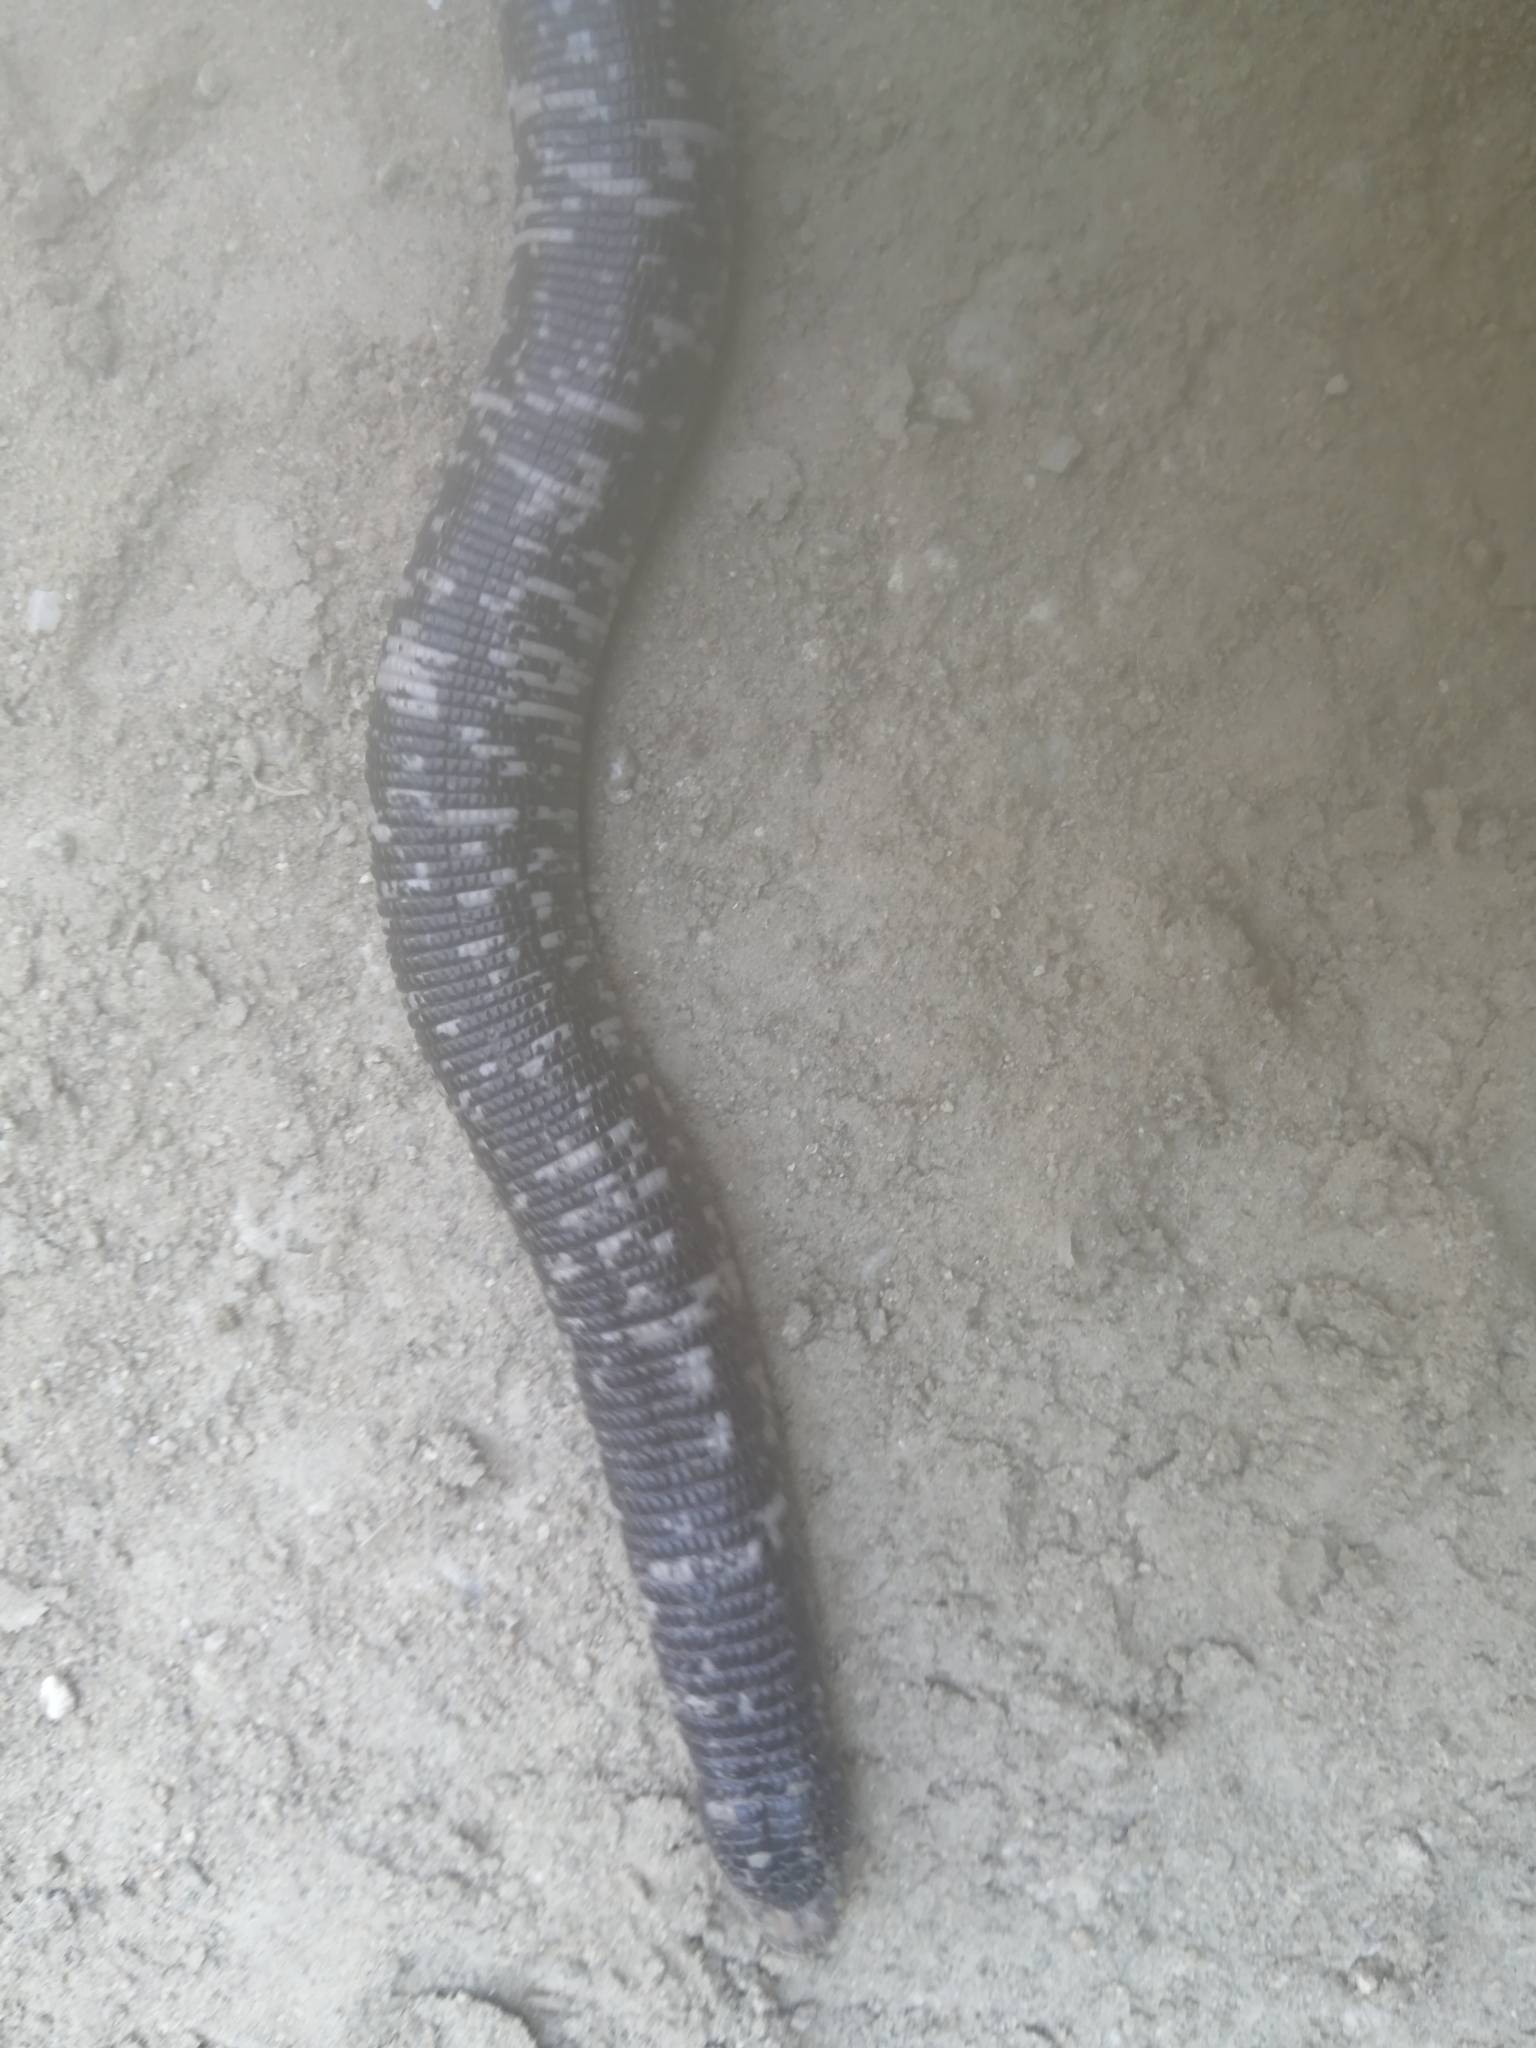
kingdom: Animalia
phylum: Chordata
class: Squamata
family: Amphisbaenidae
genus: Amphisbaena
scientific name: Amphisbaena fuliginosa
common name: Speckled worm lizard
